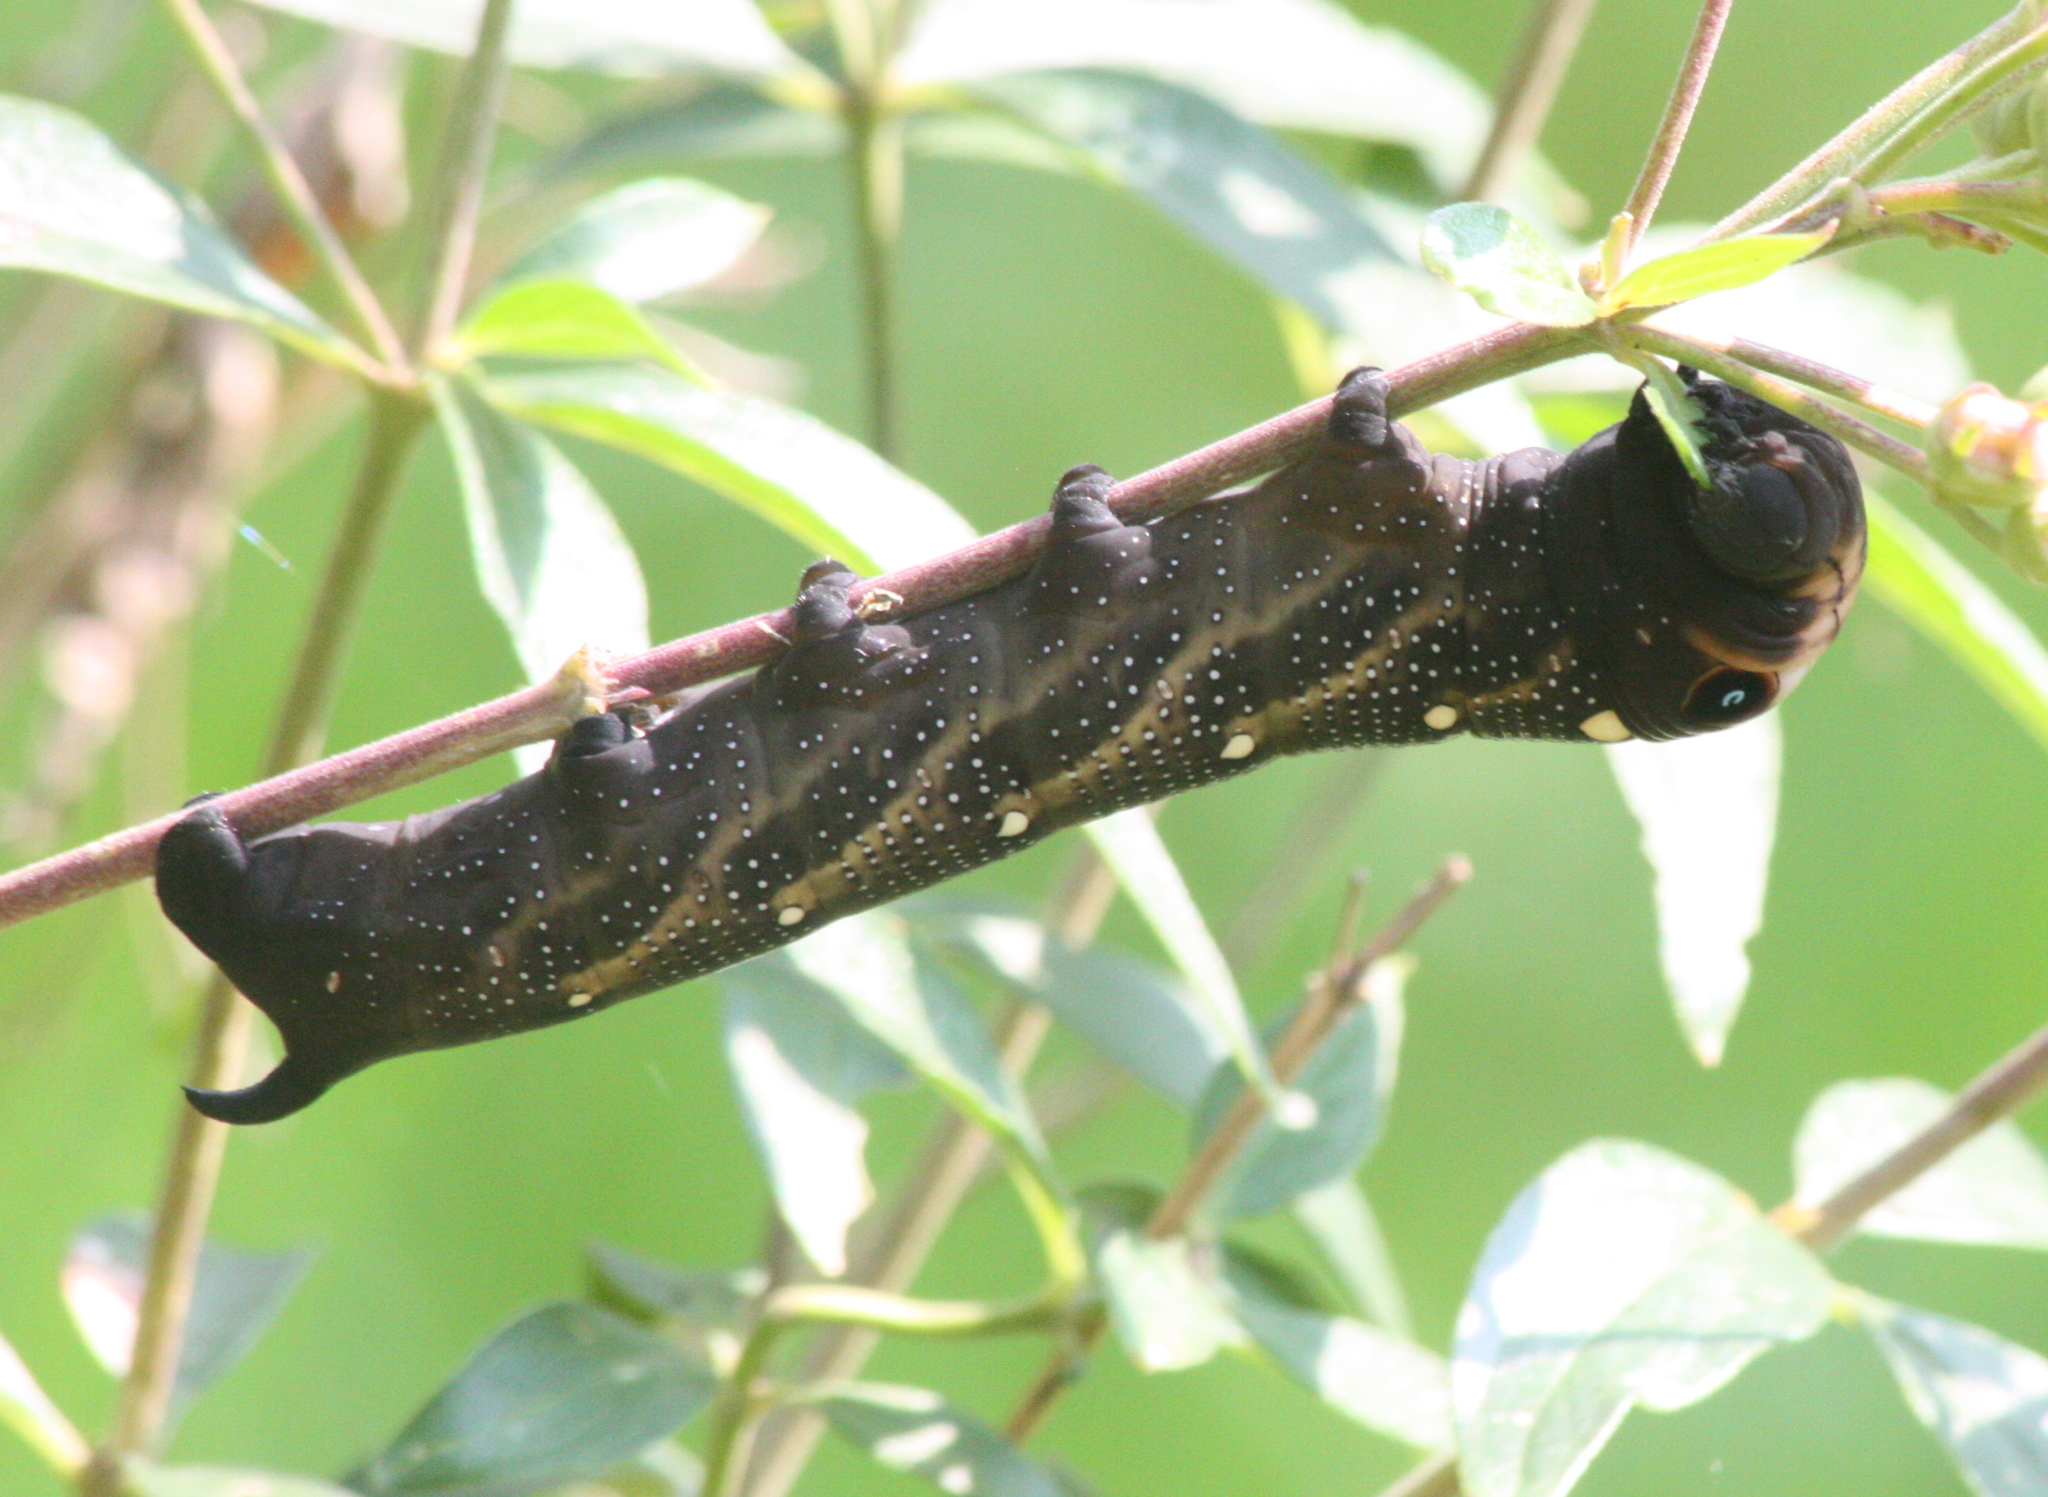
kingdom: Animalia
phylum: Arthropoda
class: Insecta
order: Lepidoptera
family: Sphingidae
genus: Xylophanes
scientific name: Xylophanes falco
